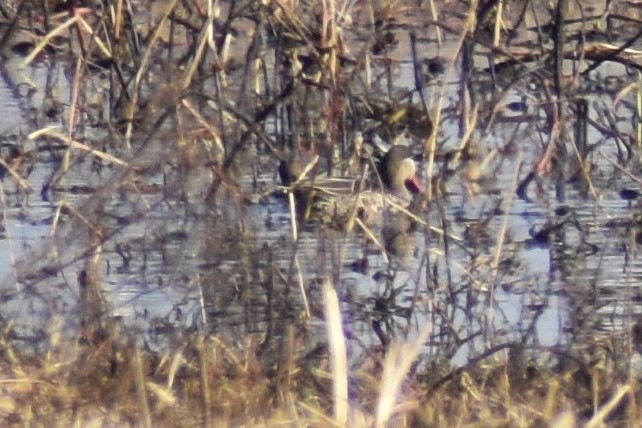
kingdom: Animalia
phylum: Chordata
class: Aves
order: Anseriformes
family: Anatidae
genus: Anas
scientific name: Anas erythrorhyncha
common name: Red-billed teal
